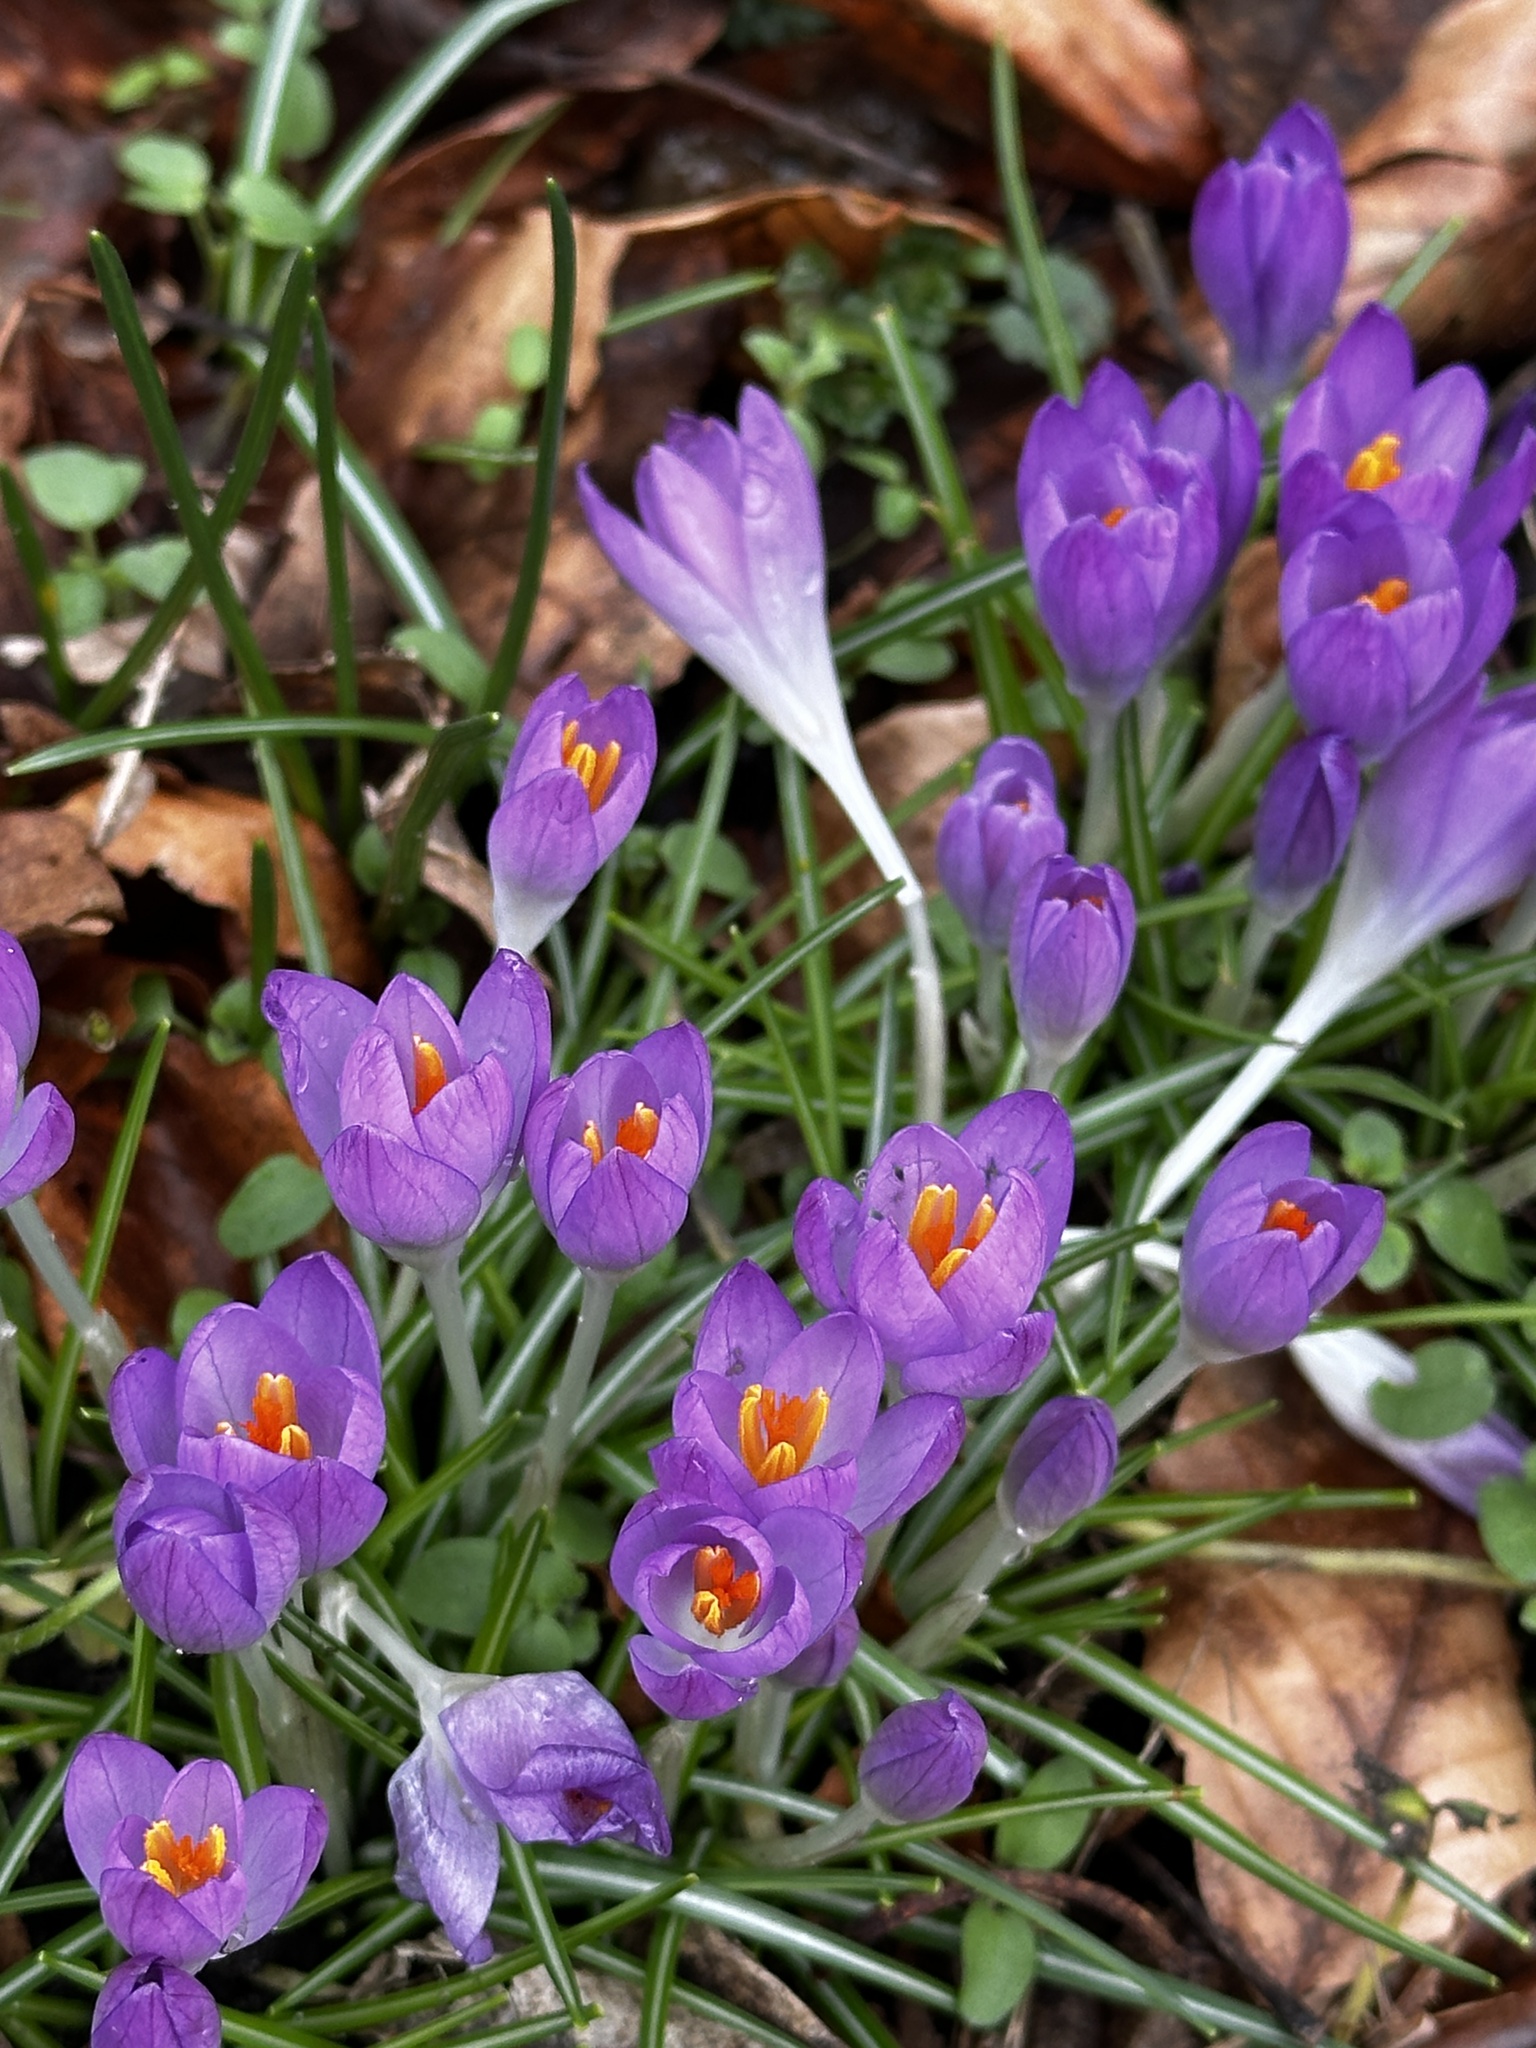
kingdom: Plantae
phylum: Tracheophyta
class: Liliopsida
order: Asparagales
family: Iridaceae
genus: Crocus
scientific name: Crocus tommasinianus
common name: Early crocus
